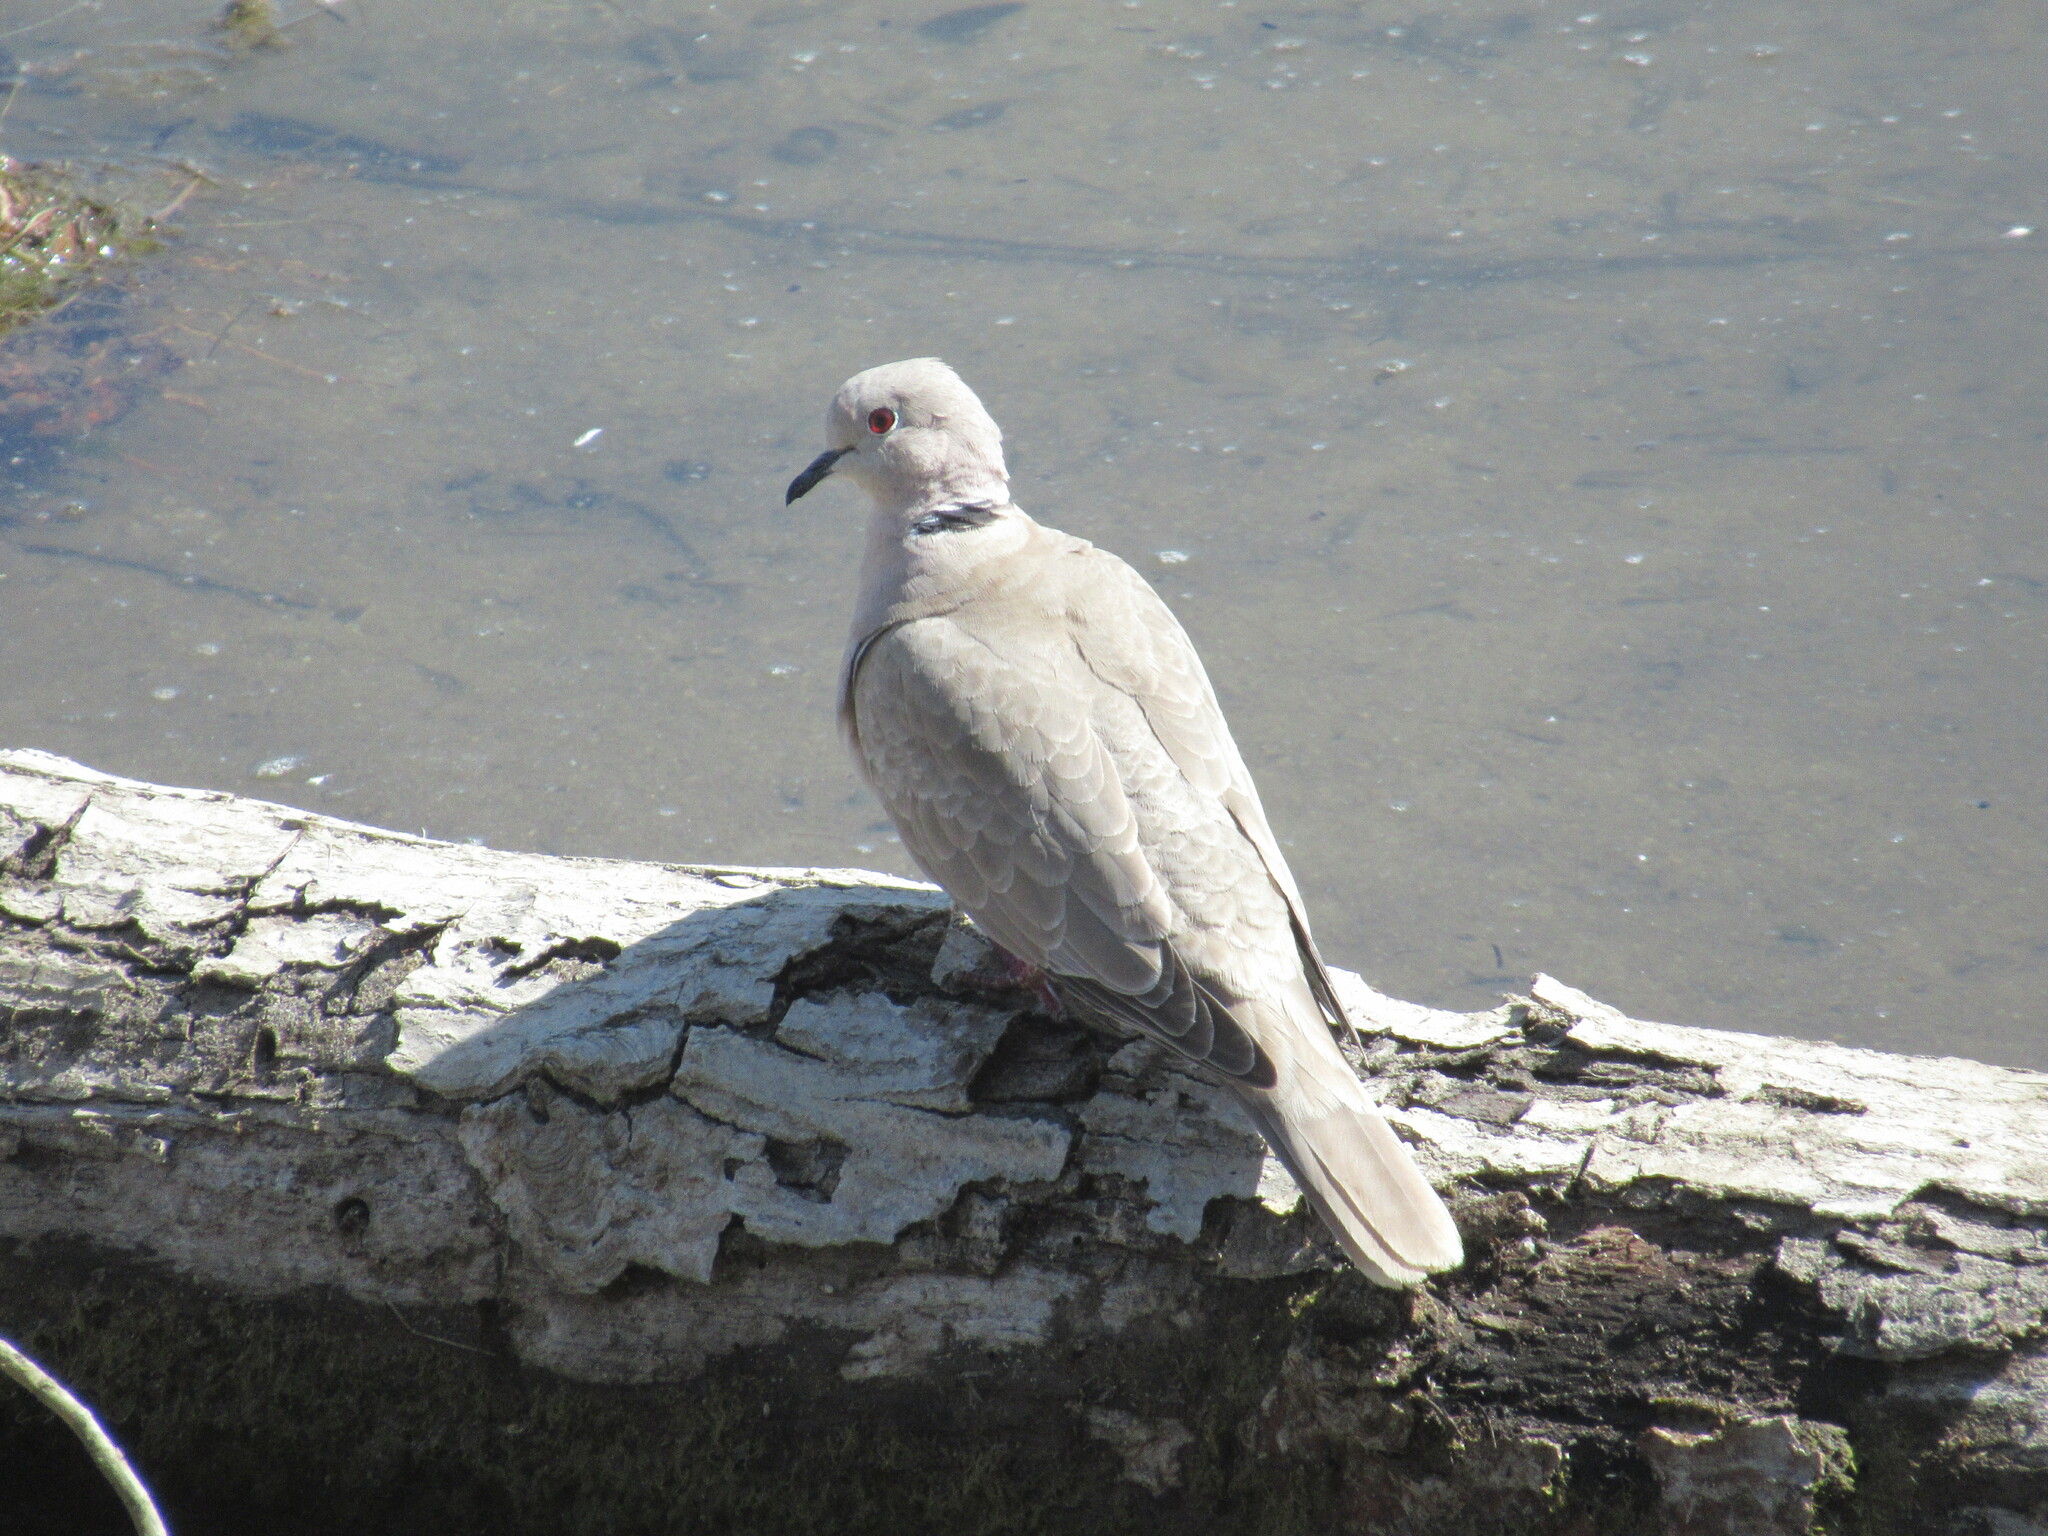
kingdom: Animalia
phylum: Chordata
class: Aves
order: Columbiformes
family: Columbidae
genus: Streptopelia
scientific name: Streptopelia decaocto
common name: Eurasian collared dove
